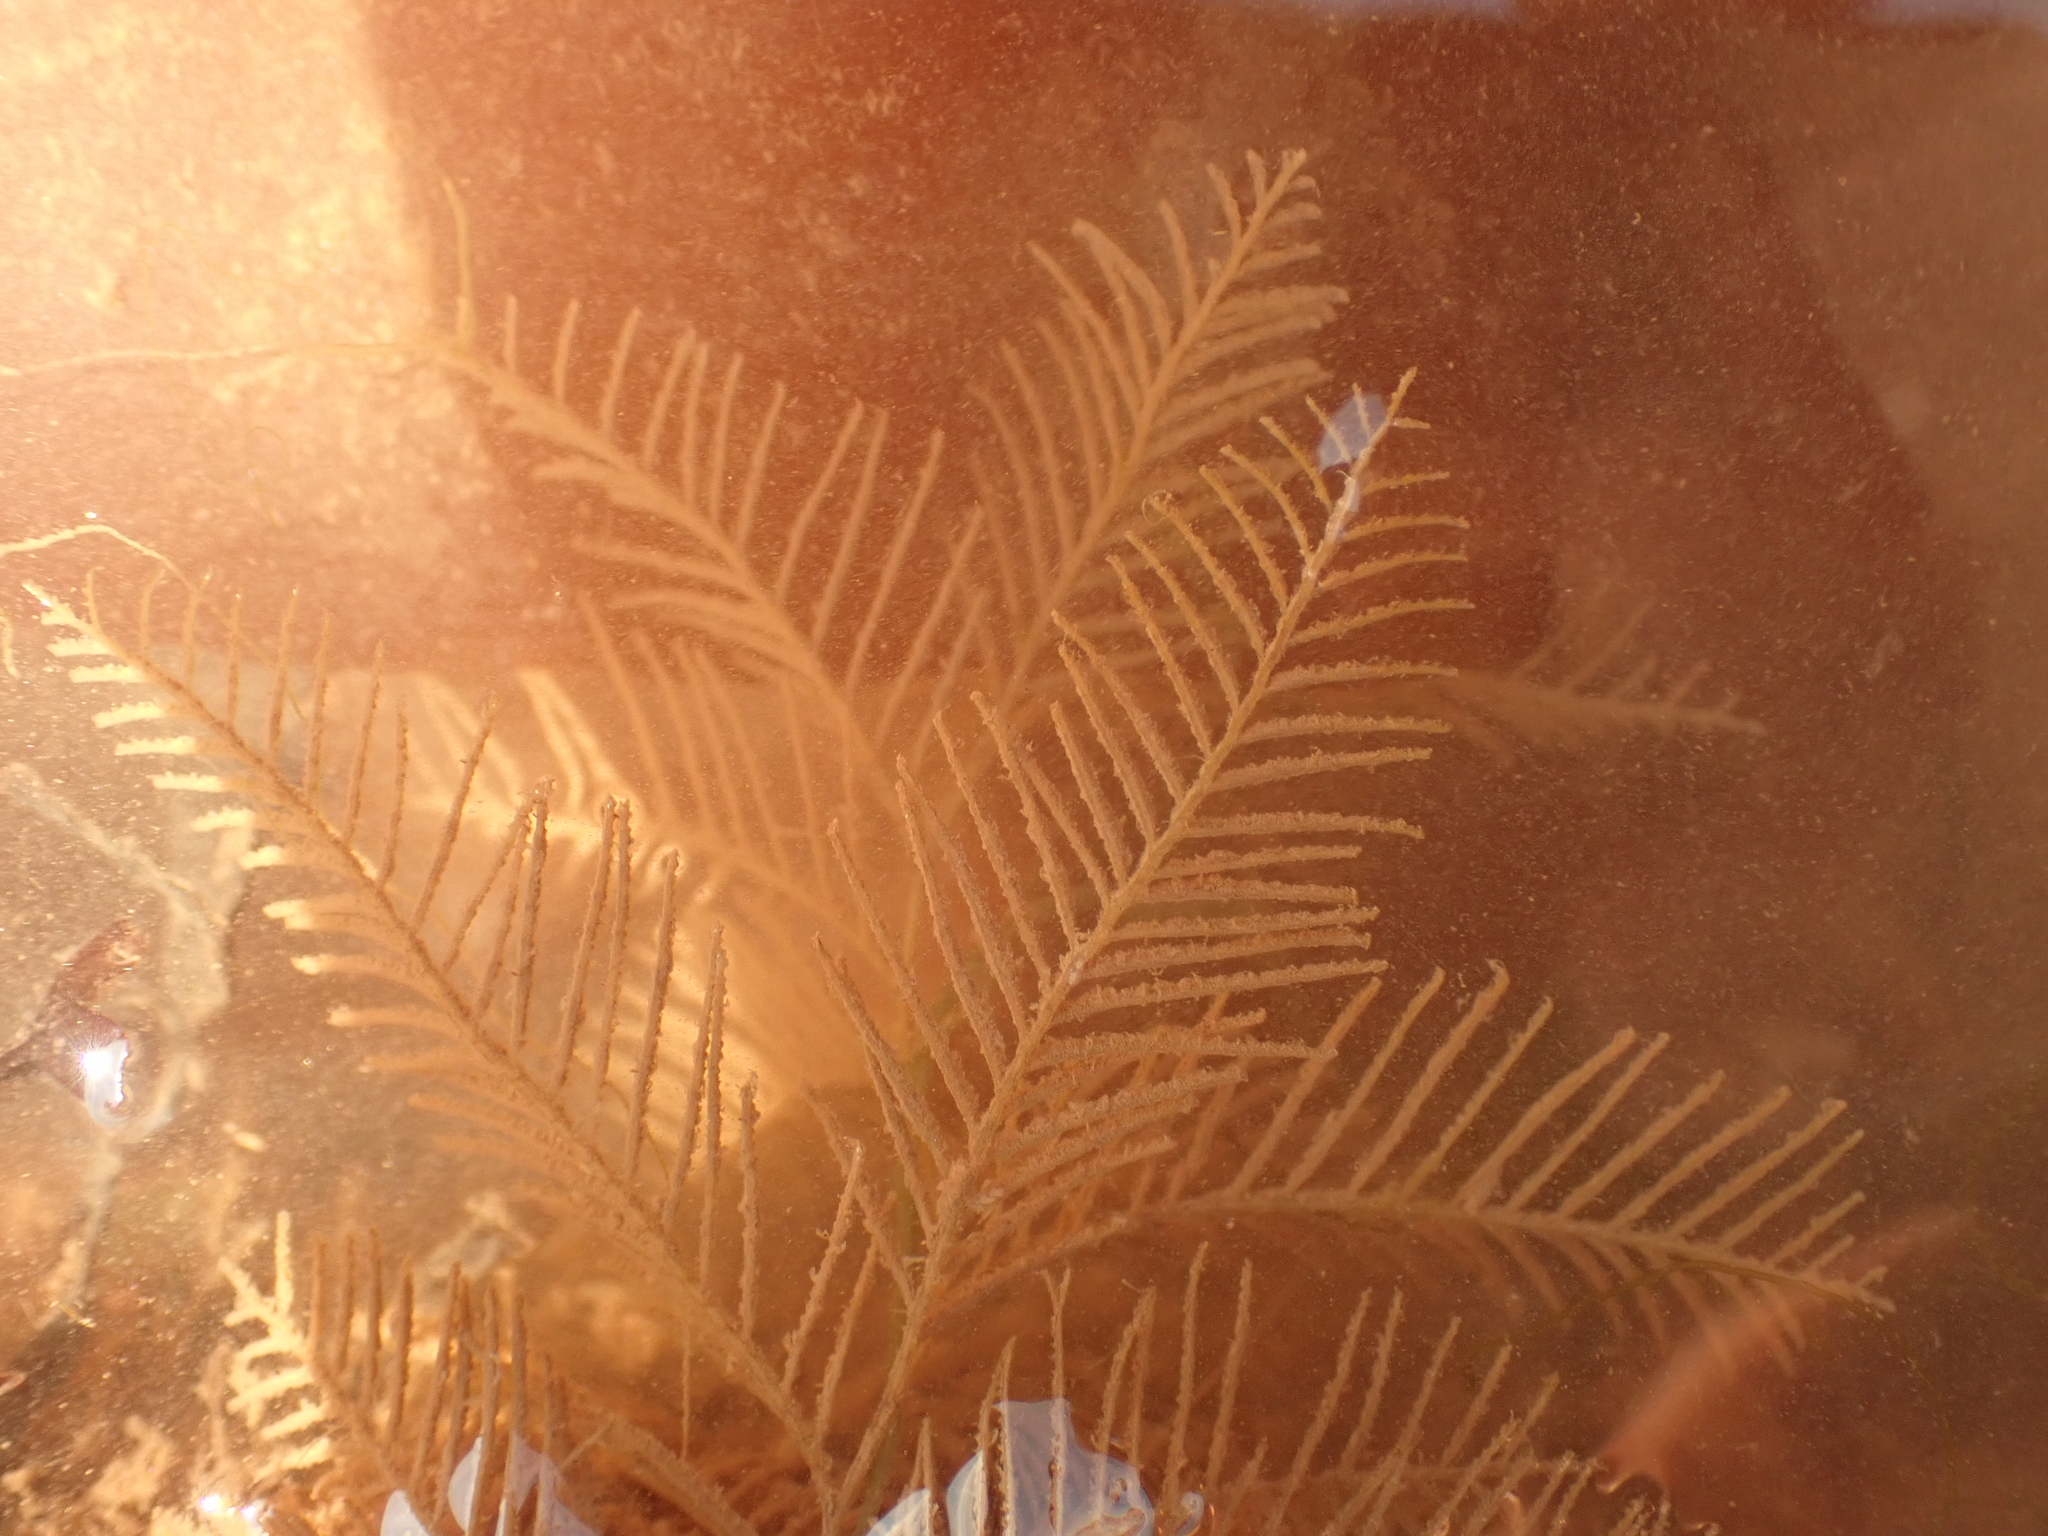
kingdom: Animalia
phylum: Cnidaria
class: Hydrozoa
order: Leptothecata
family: Sertulariidae
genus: Hydrallmania
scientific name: Hydrallmania falcata
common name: Sickle hydroid
